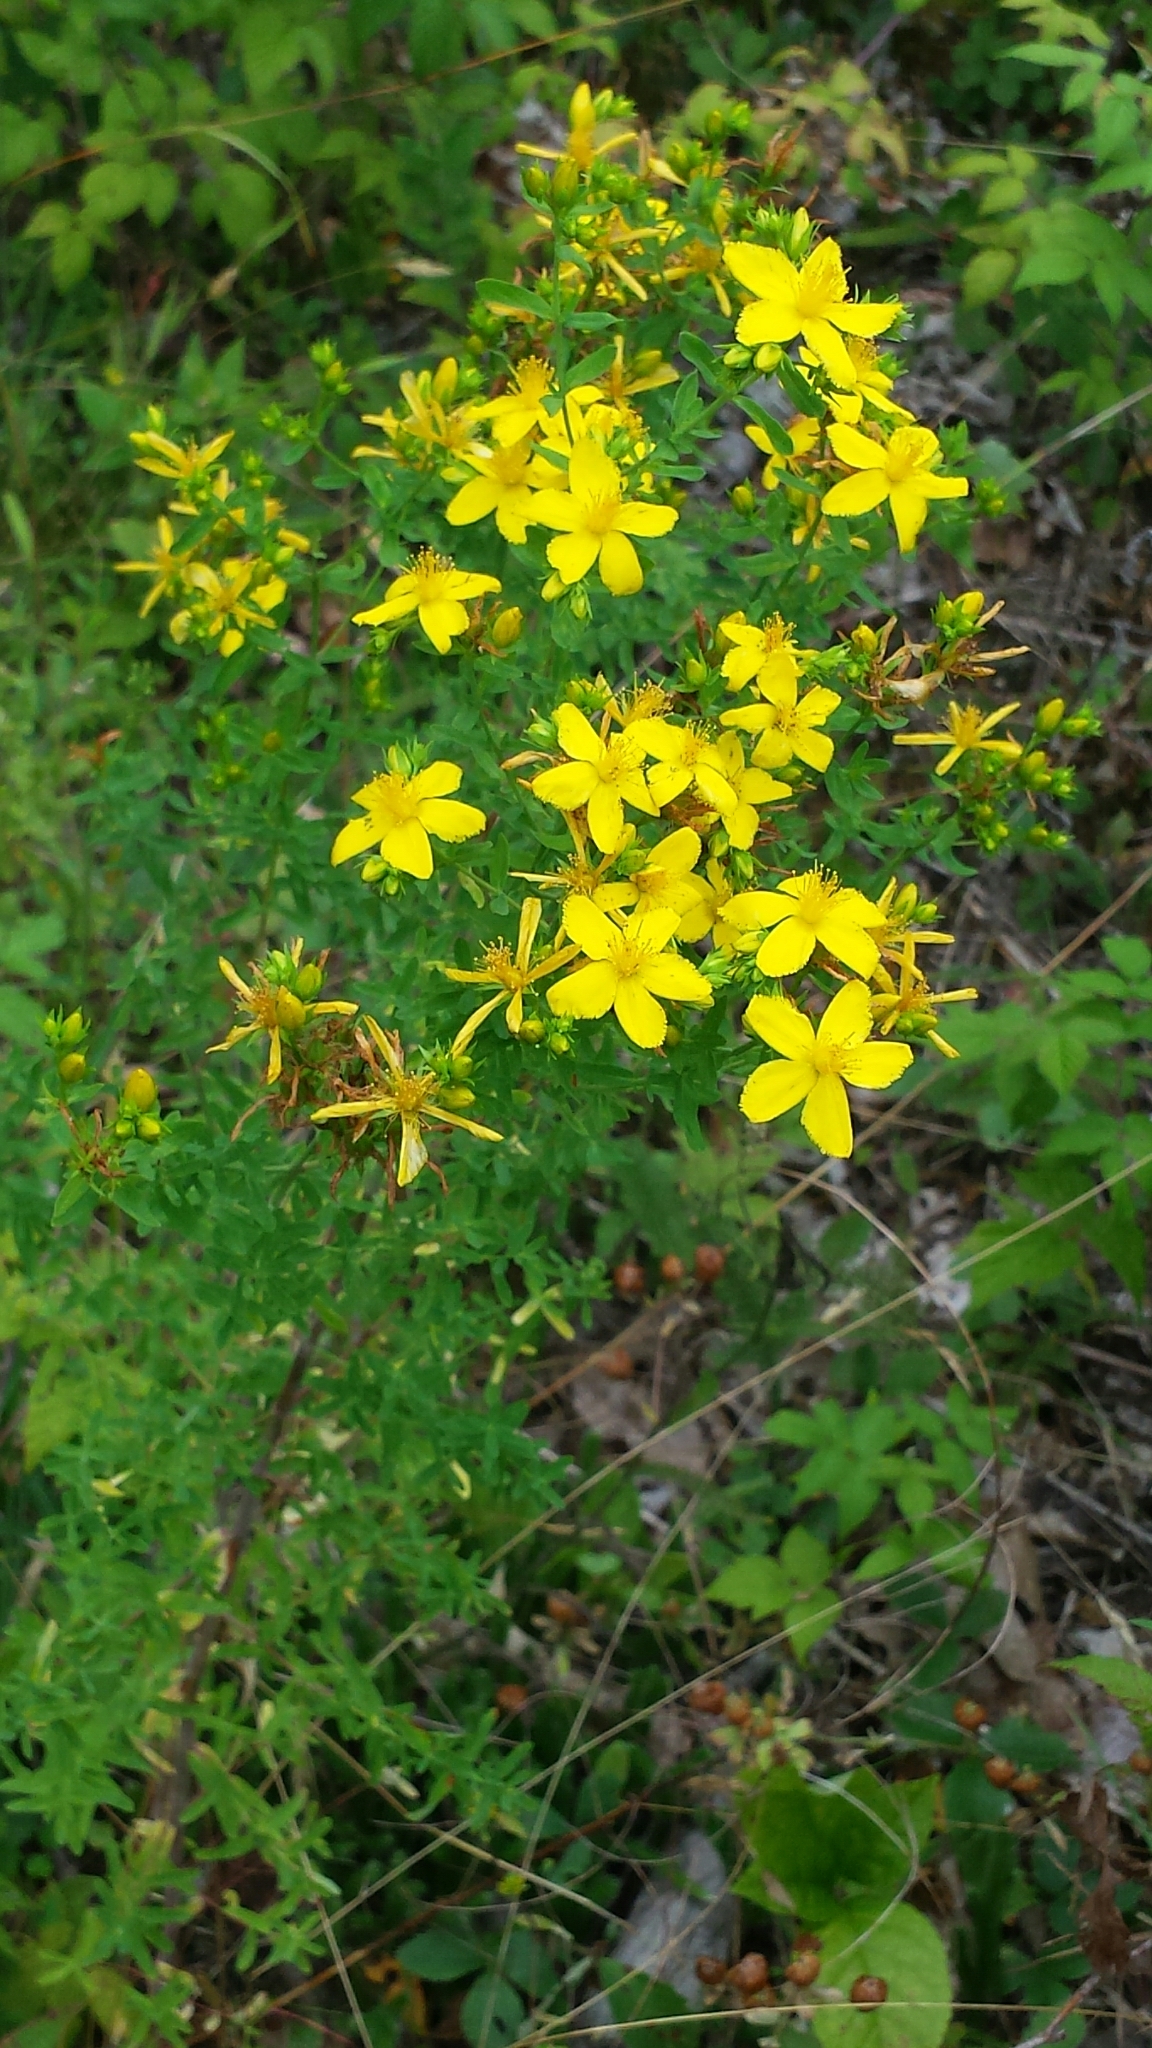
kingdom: Plantae
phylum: Tracheophyta
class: Magnoliopsida
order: Malpighiales
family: Hypericaceae
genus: Hypericum
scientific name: Hypericum perforatum
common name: Common st. johnswort
